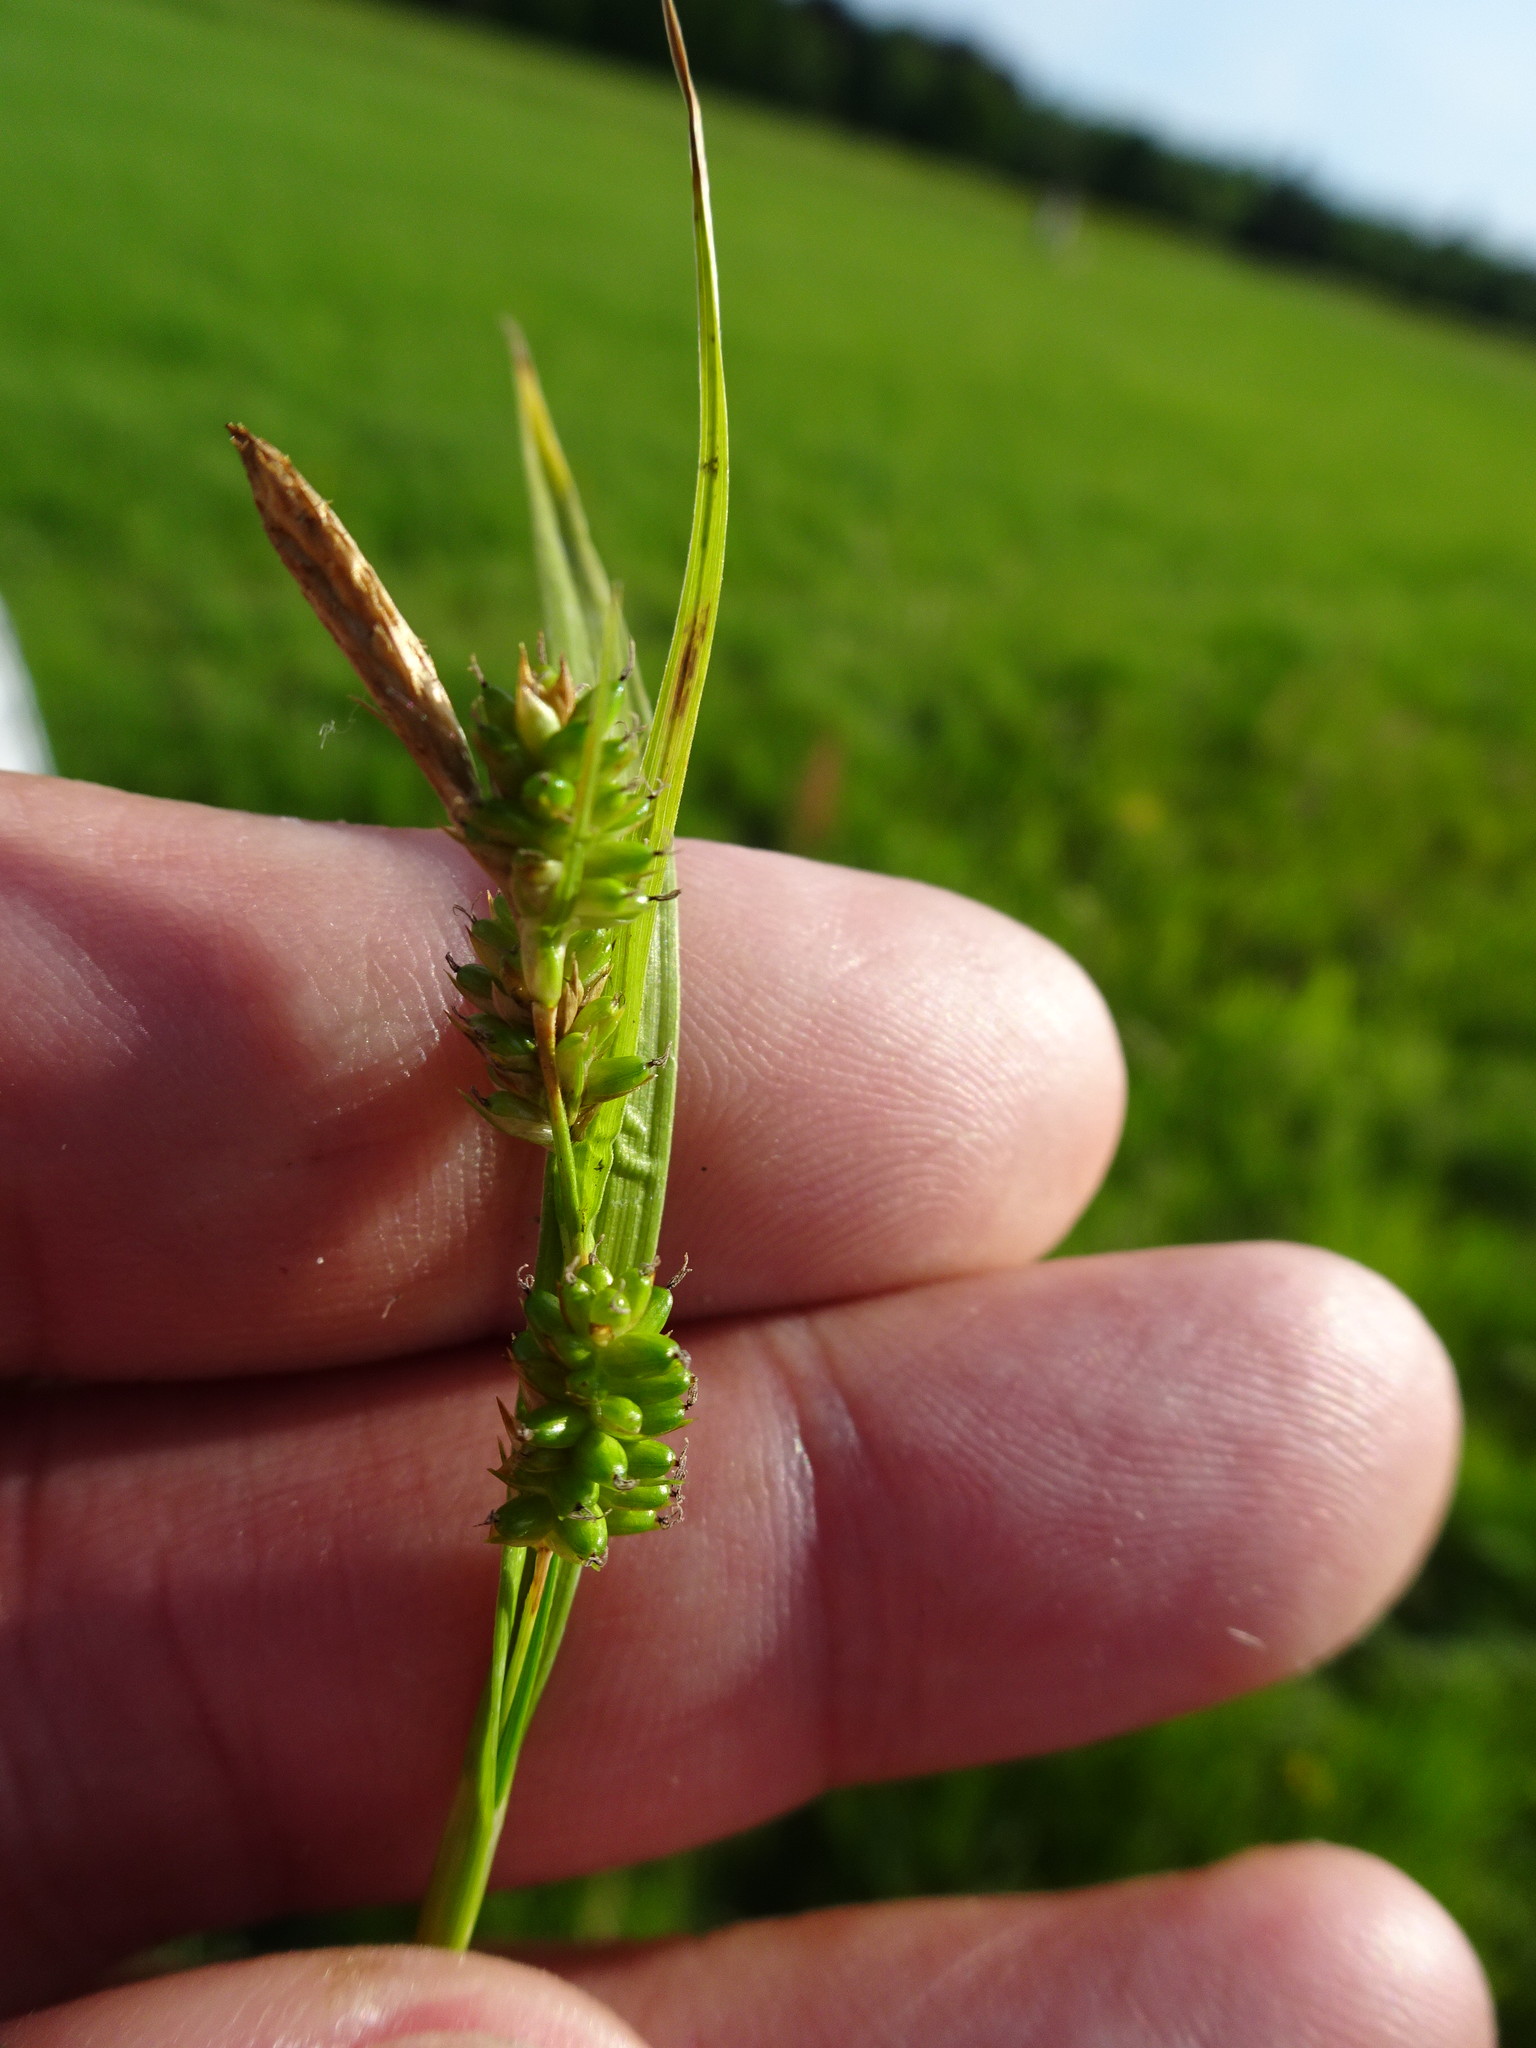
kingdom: Plantae
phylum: Tracheophyta
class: Liliopsida
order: Poales
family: Cyperaceae
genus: Carex
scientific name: Carex pallescens
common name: Pale sedge
